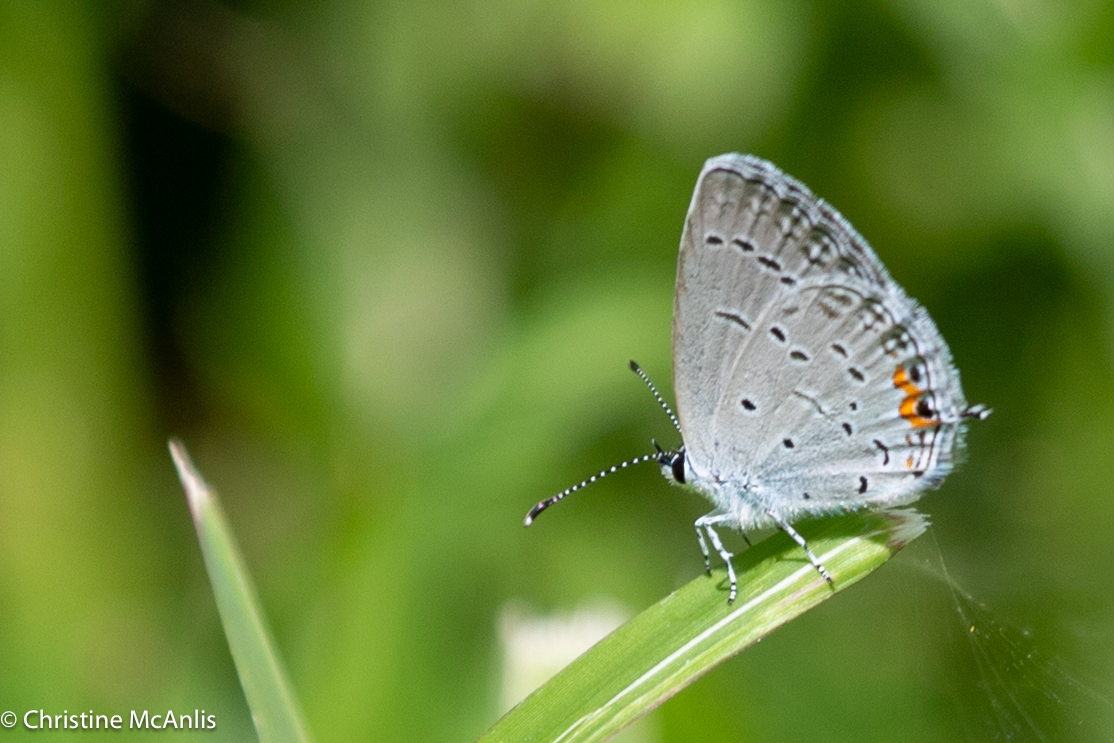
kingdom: Animalia
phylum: Arthropoda
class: Insecta
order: Lepidoptera
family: Lycaenidae
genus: Elkalyce
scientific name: Elkalyce comyntas
